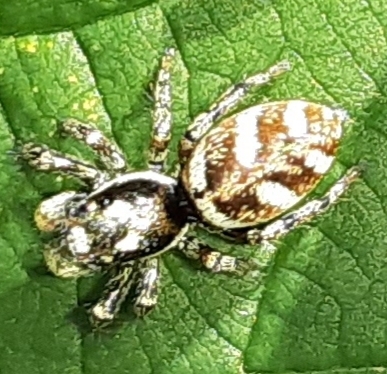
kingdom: Animalia
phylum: Arthropoda
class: Arachnida
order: Araneae
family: Salticidae
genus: Salticus
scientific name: Salticus scenicus
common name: Zebra jumper
